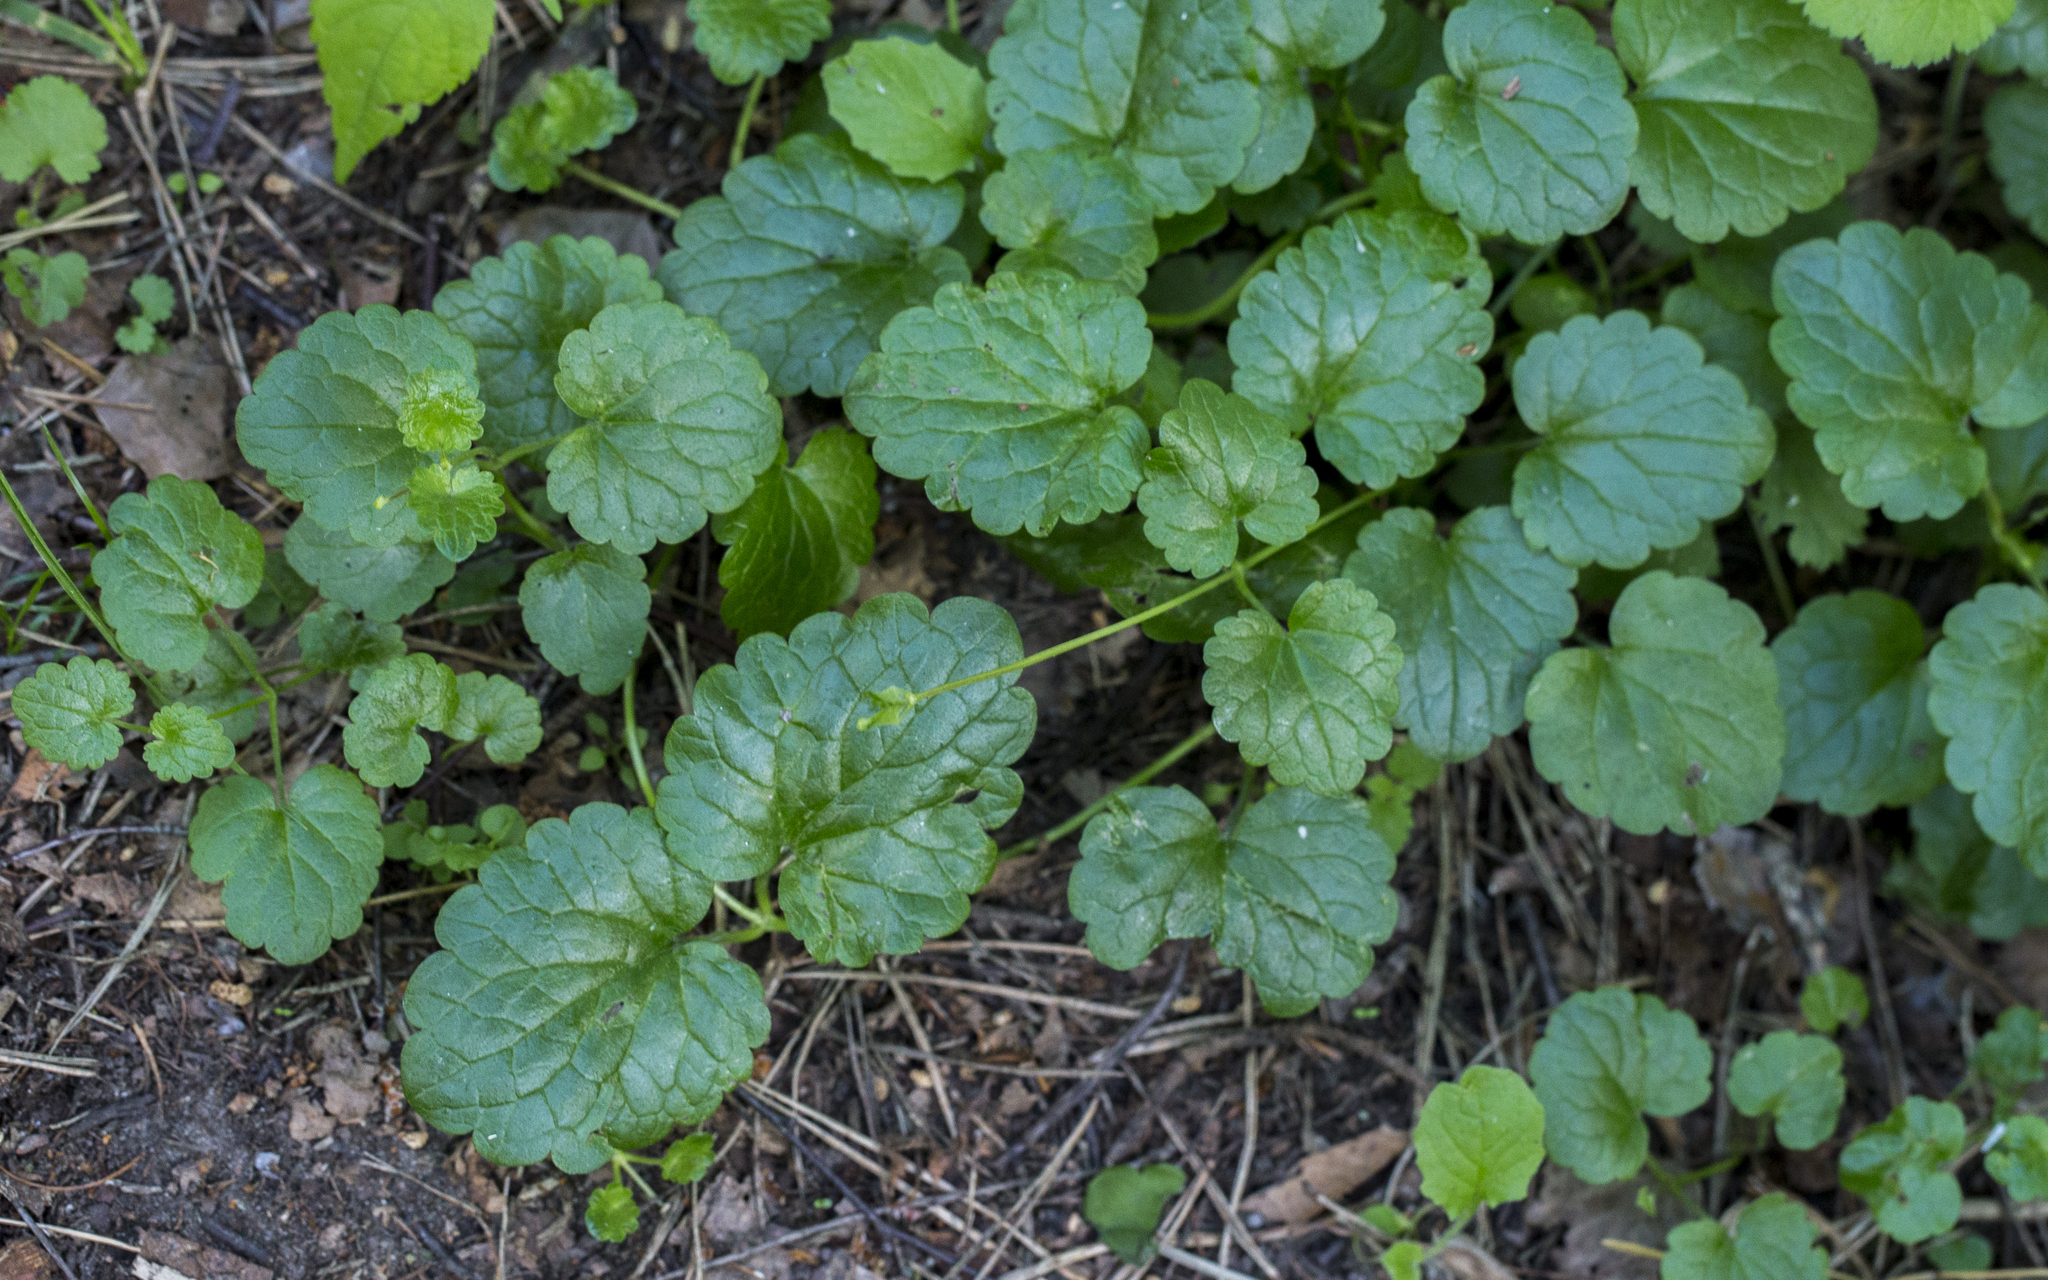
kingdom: Plantae
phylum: Tracheophyta
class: Magnoliopsida
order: Lamiales
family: Lamiaceae
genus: Glechoma
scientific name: Glechoma hederacea
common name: Ground ivy
